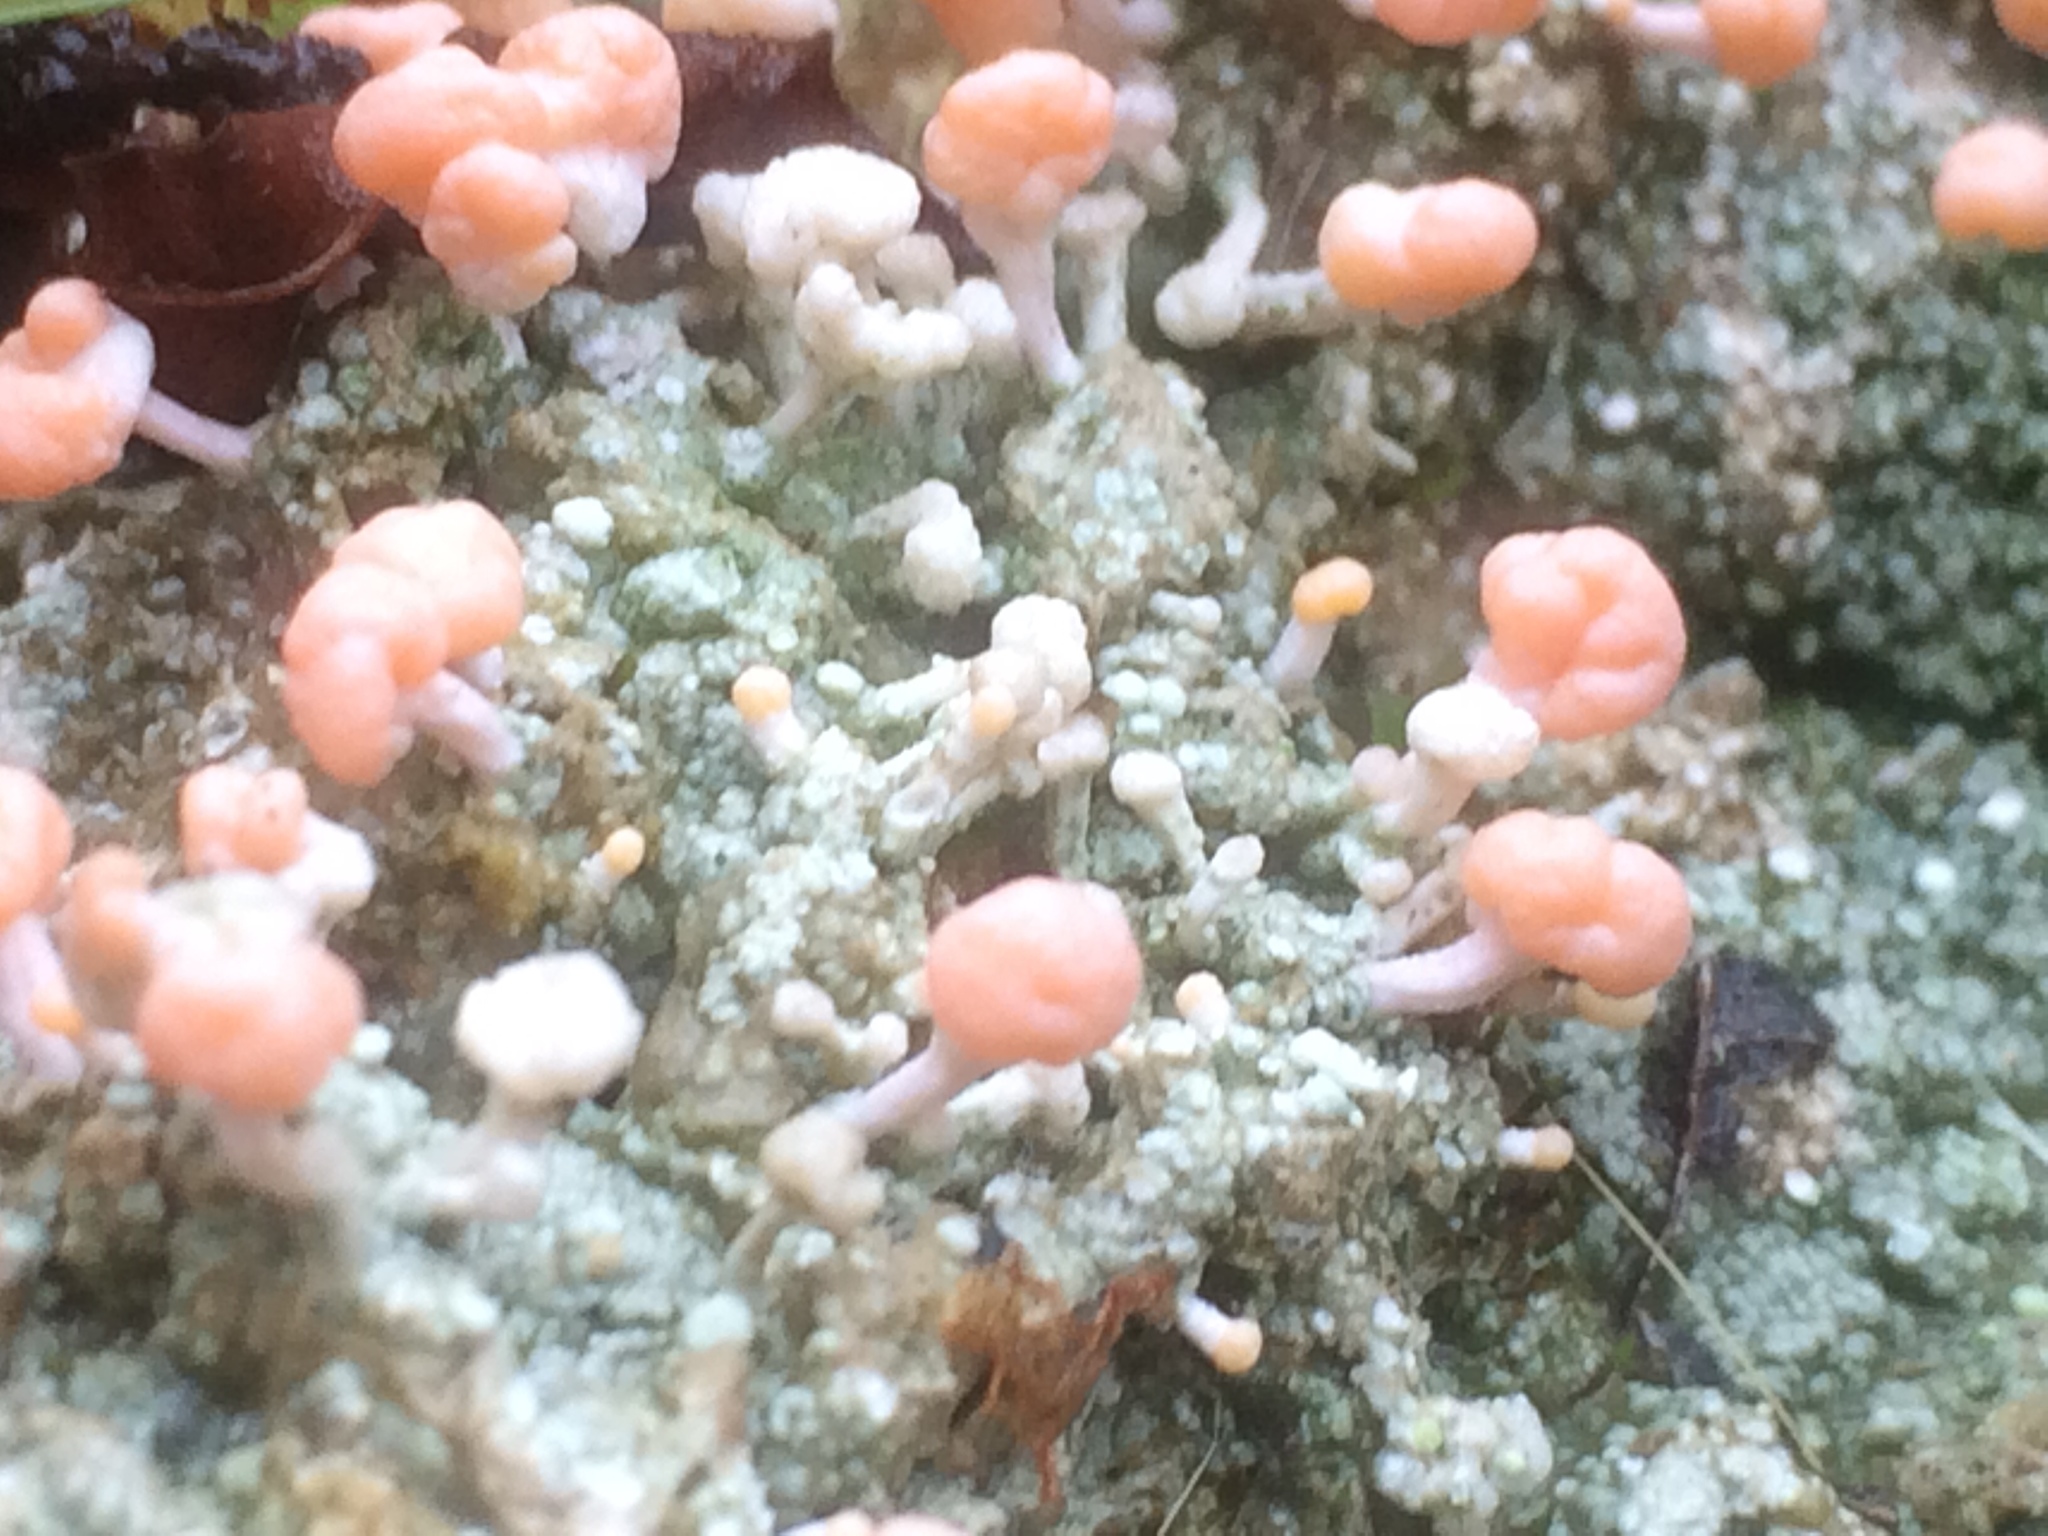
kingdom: Fungi
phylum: Ascomycota
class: Lecanoromycetes
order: Pertusariales
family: Icmadophilaceae
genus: Dibaeis
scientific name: Dibaeis baeomyces
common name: Pink earth lichen
